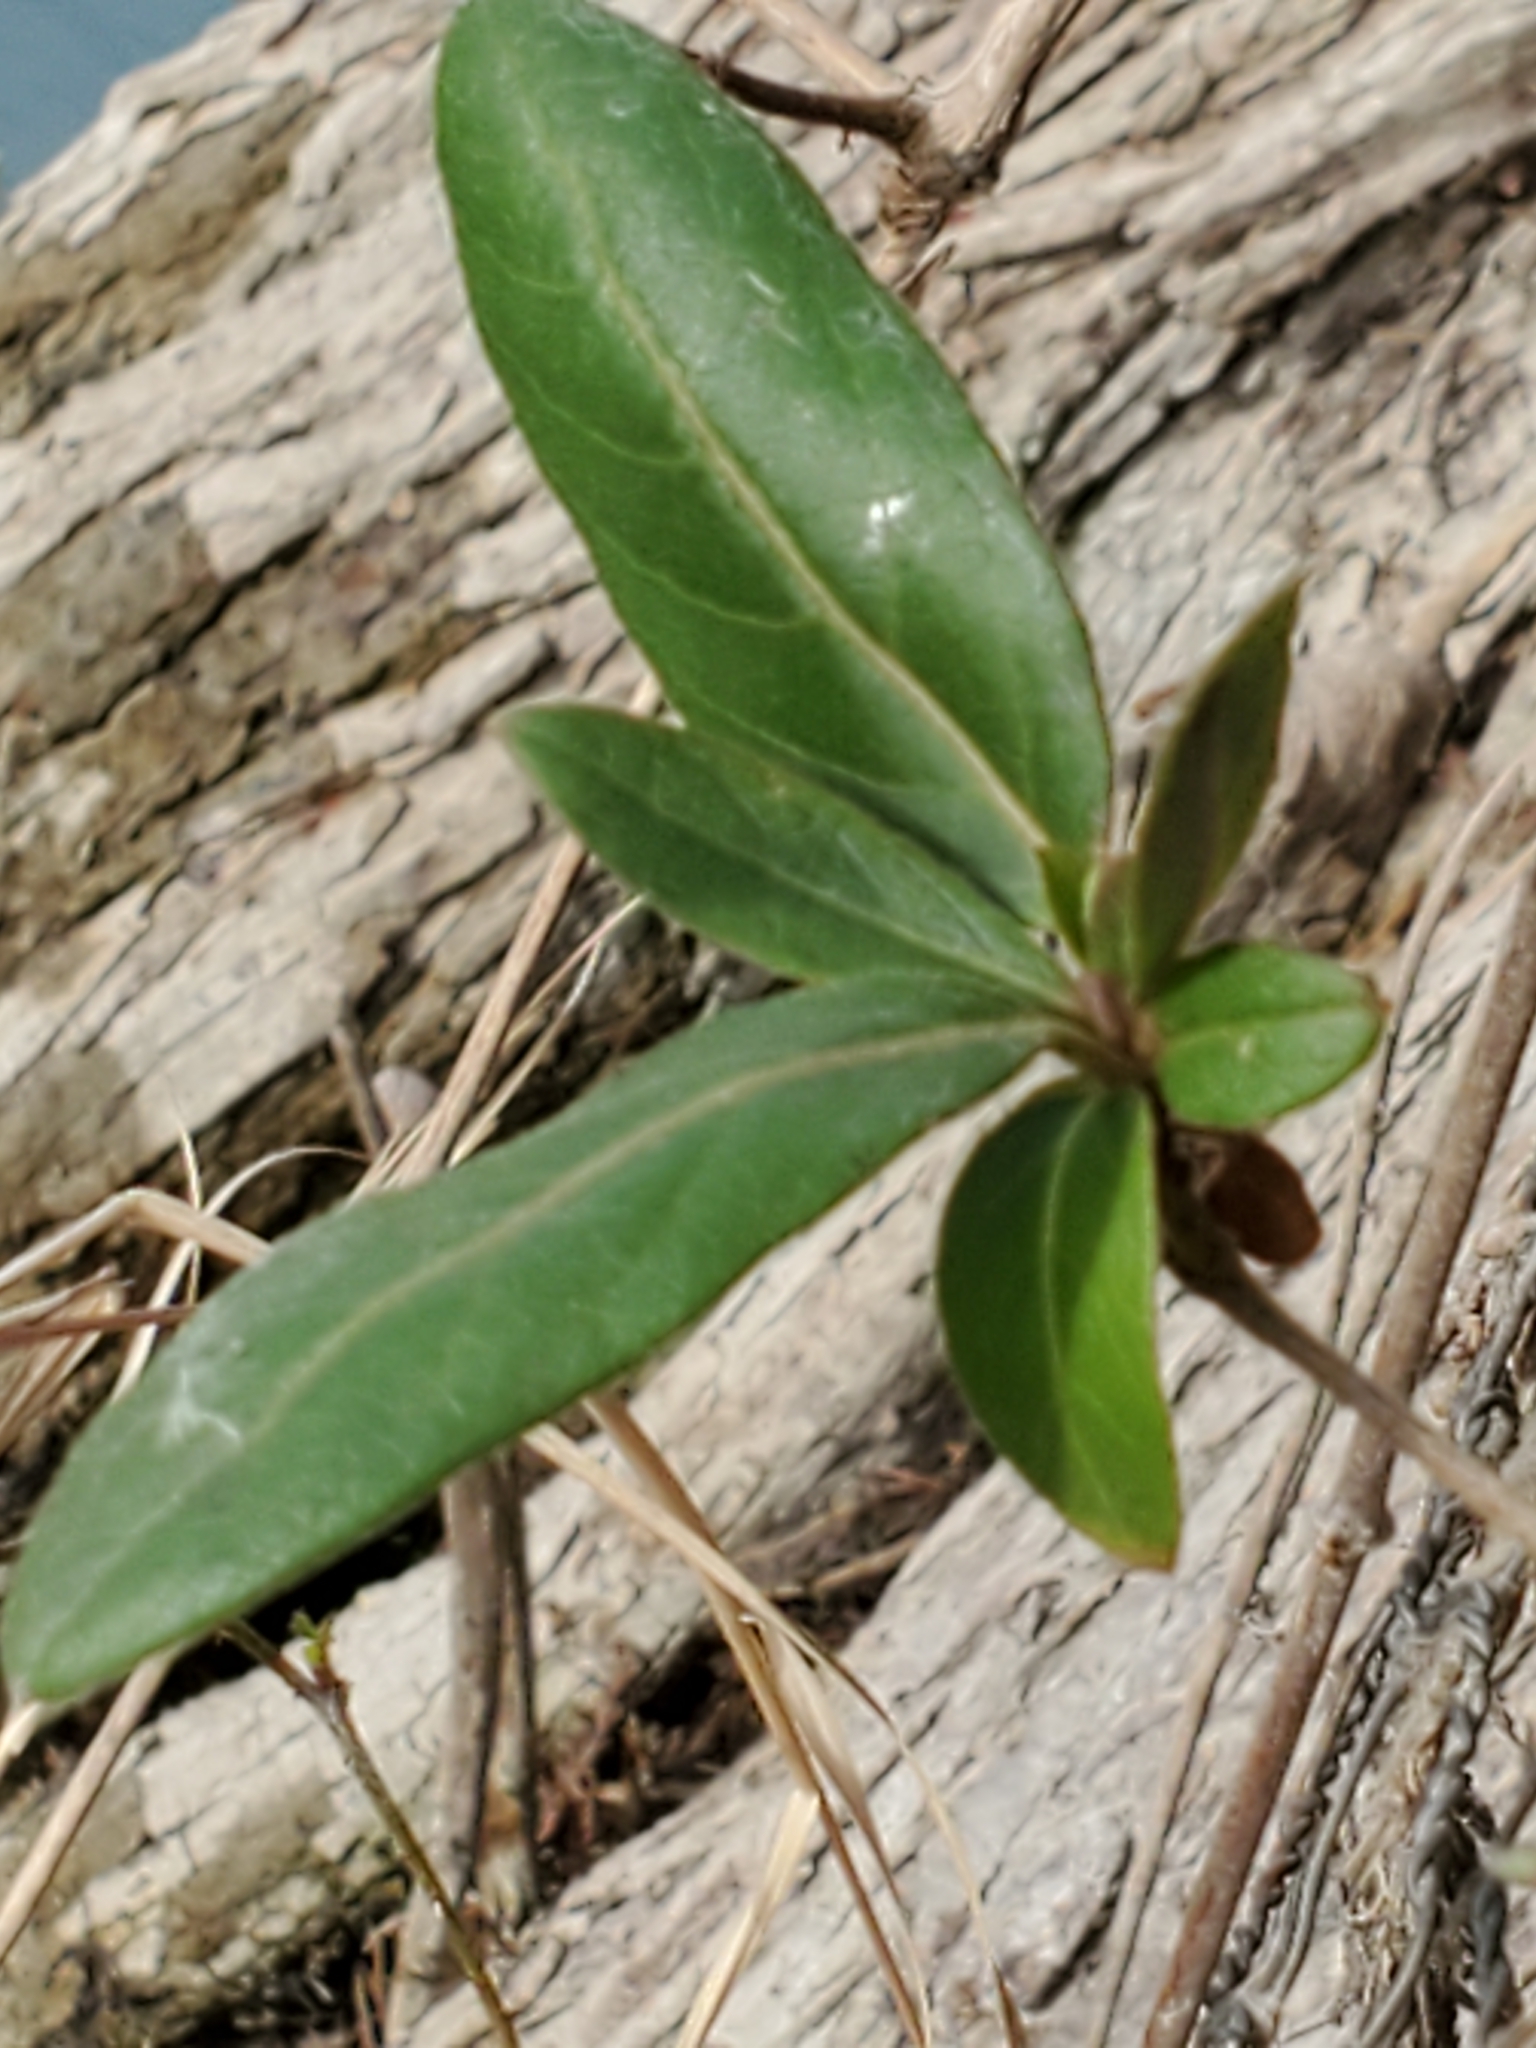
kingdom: Plantae
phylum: Tracheophyta
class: Magnoliopsida
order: Dipsacales
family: Caprifoliaceae
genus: Lonicera
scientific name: Lonicera japonica
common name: Japanese honeysuckle
